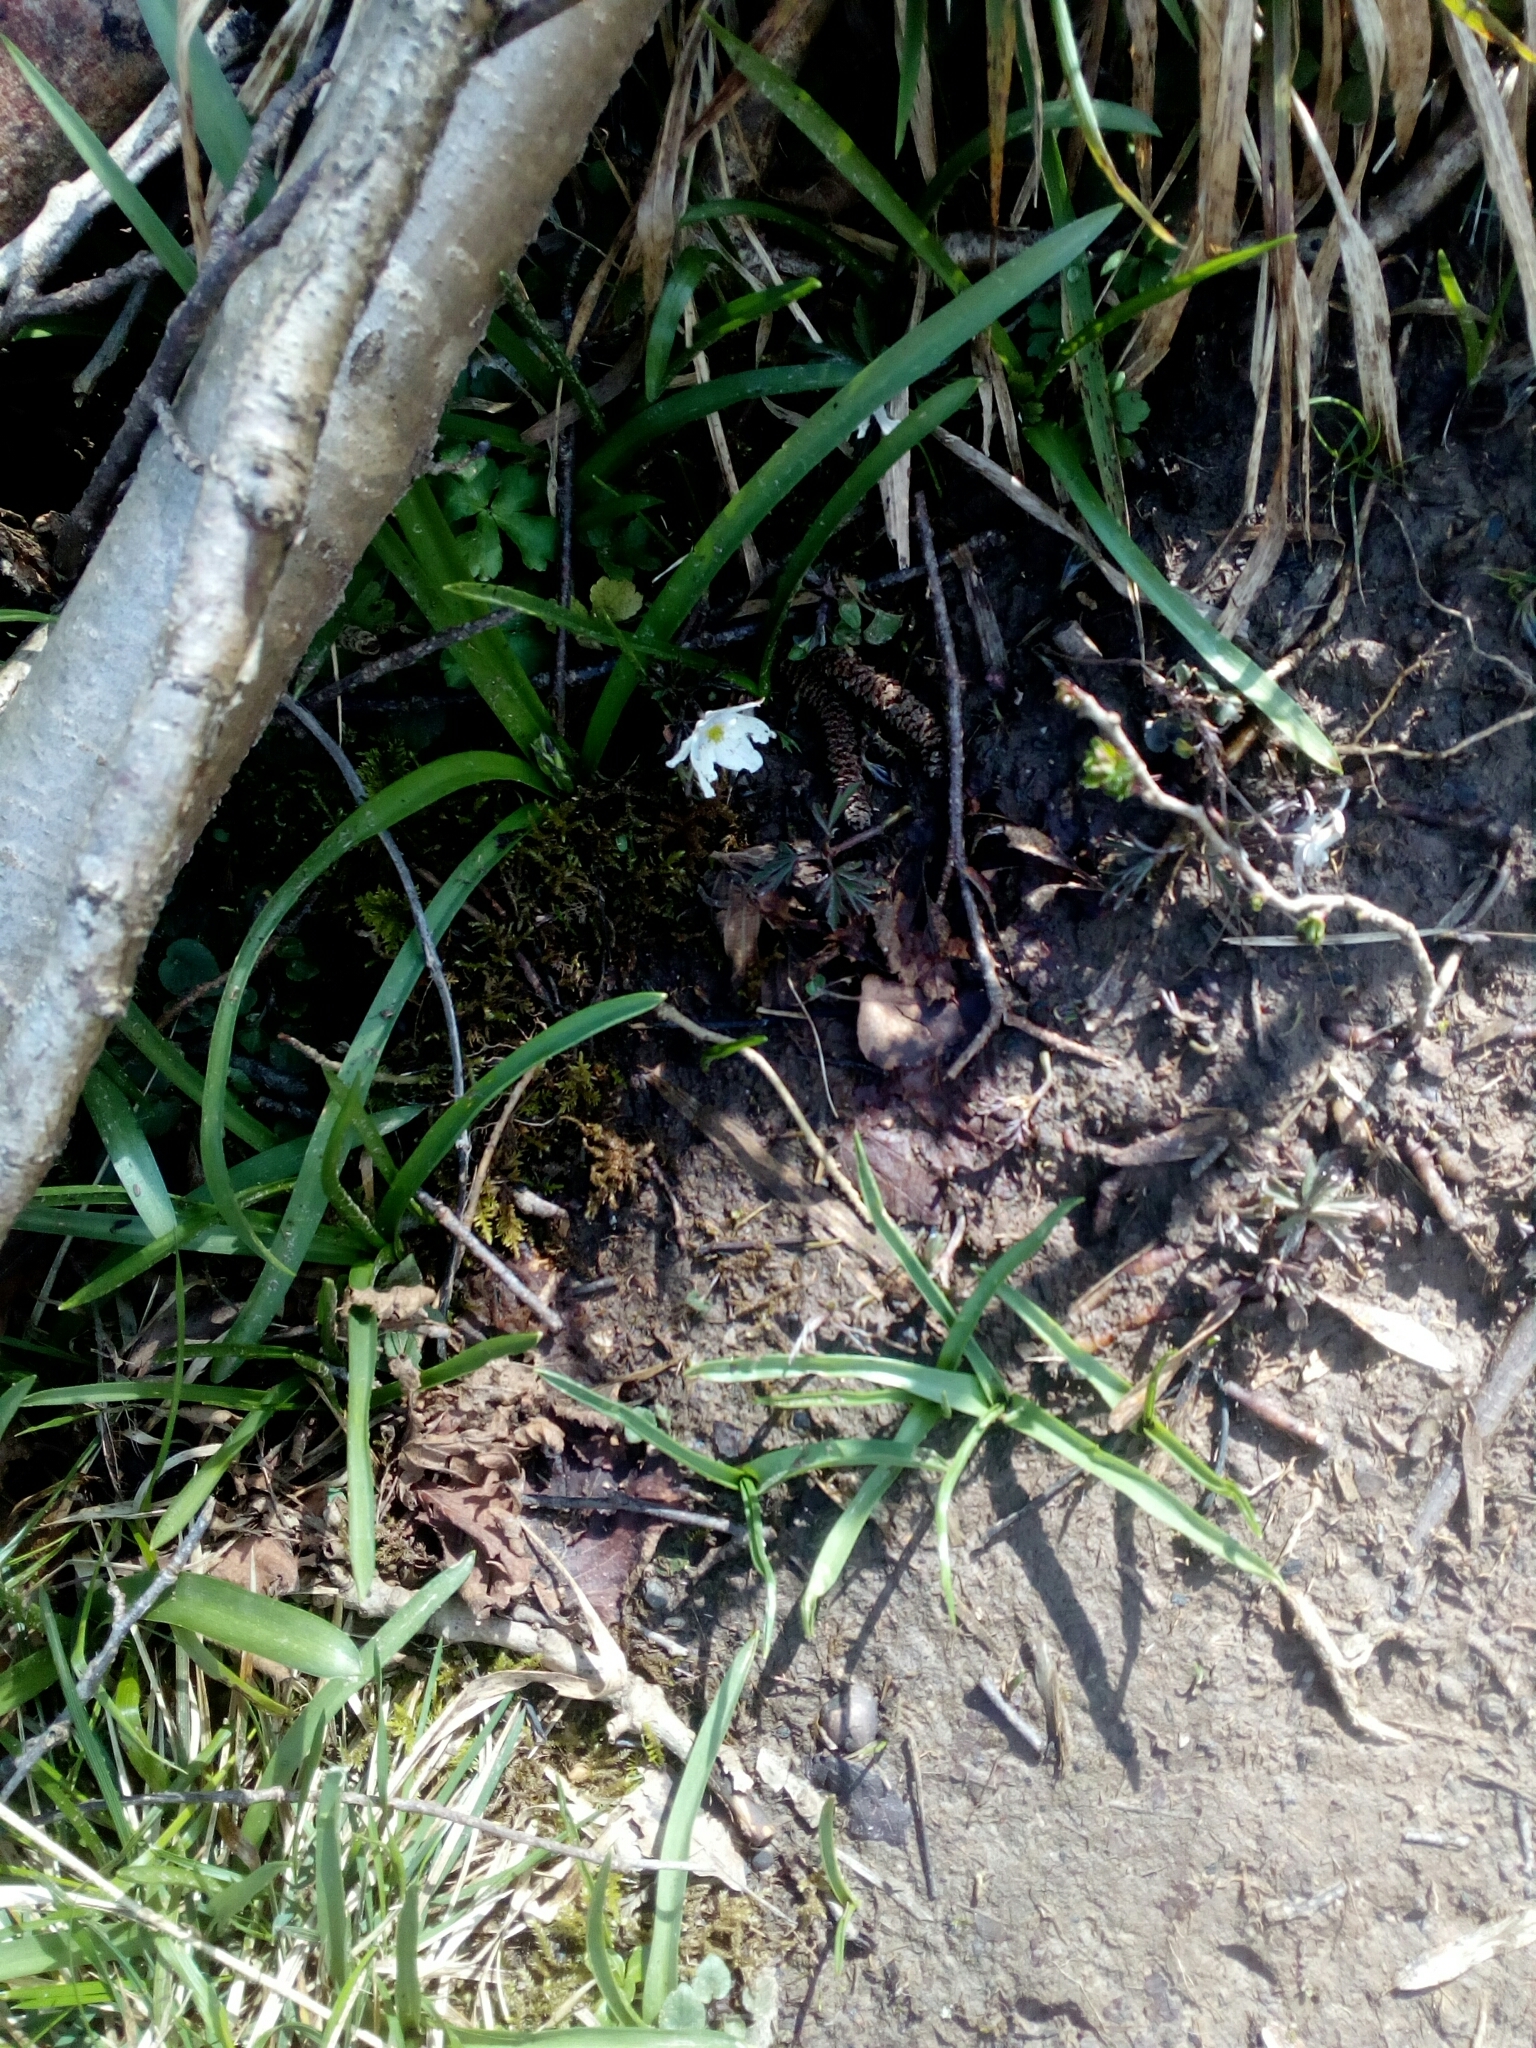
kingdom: Plantae
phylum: Tracheophyta
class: Magnoliopsida
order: Ranunculales
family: Ranunculaceae
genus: Anemone
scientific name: Anemone nemorosa
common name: Wood anemone
